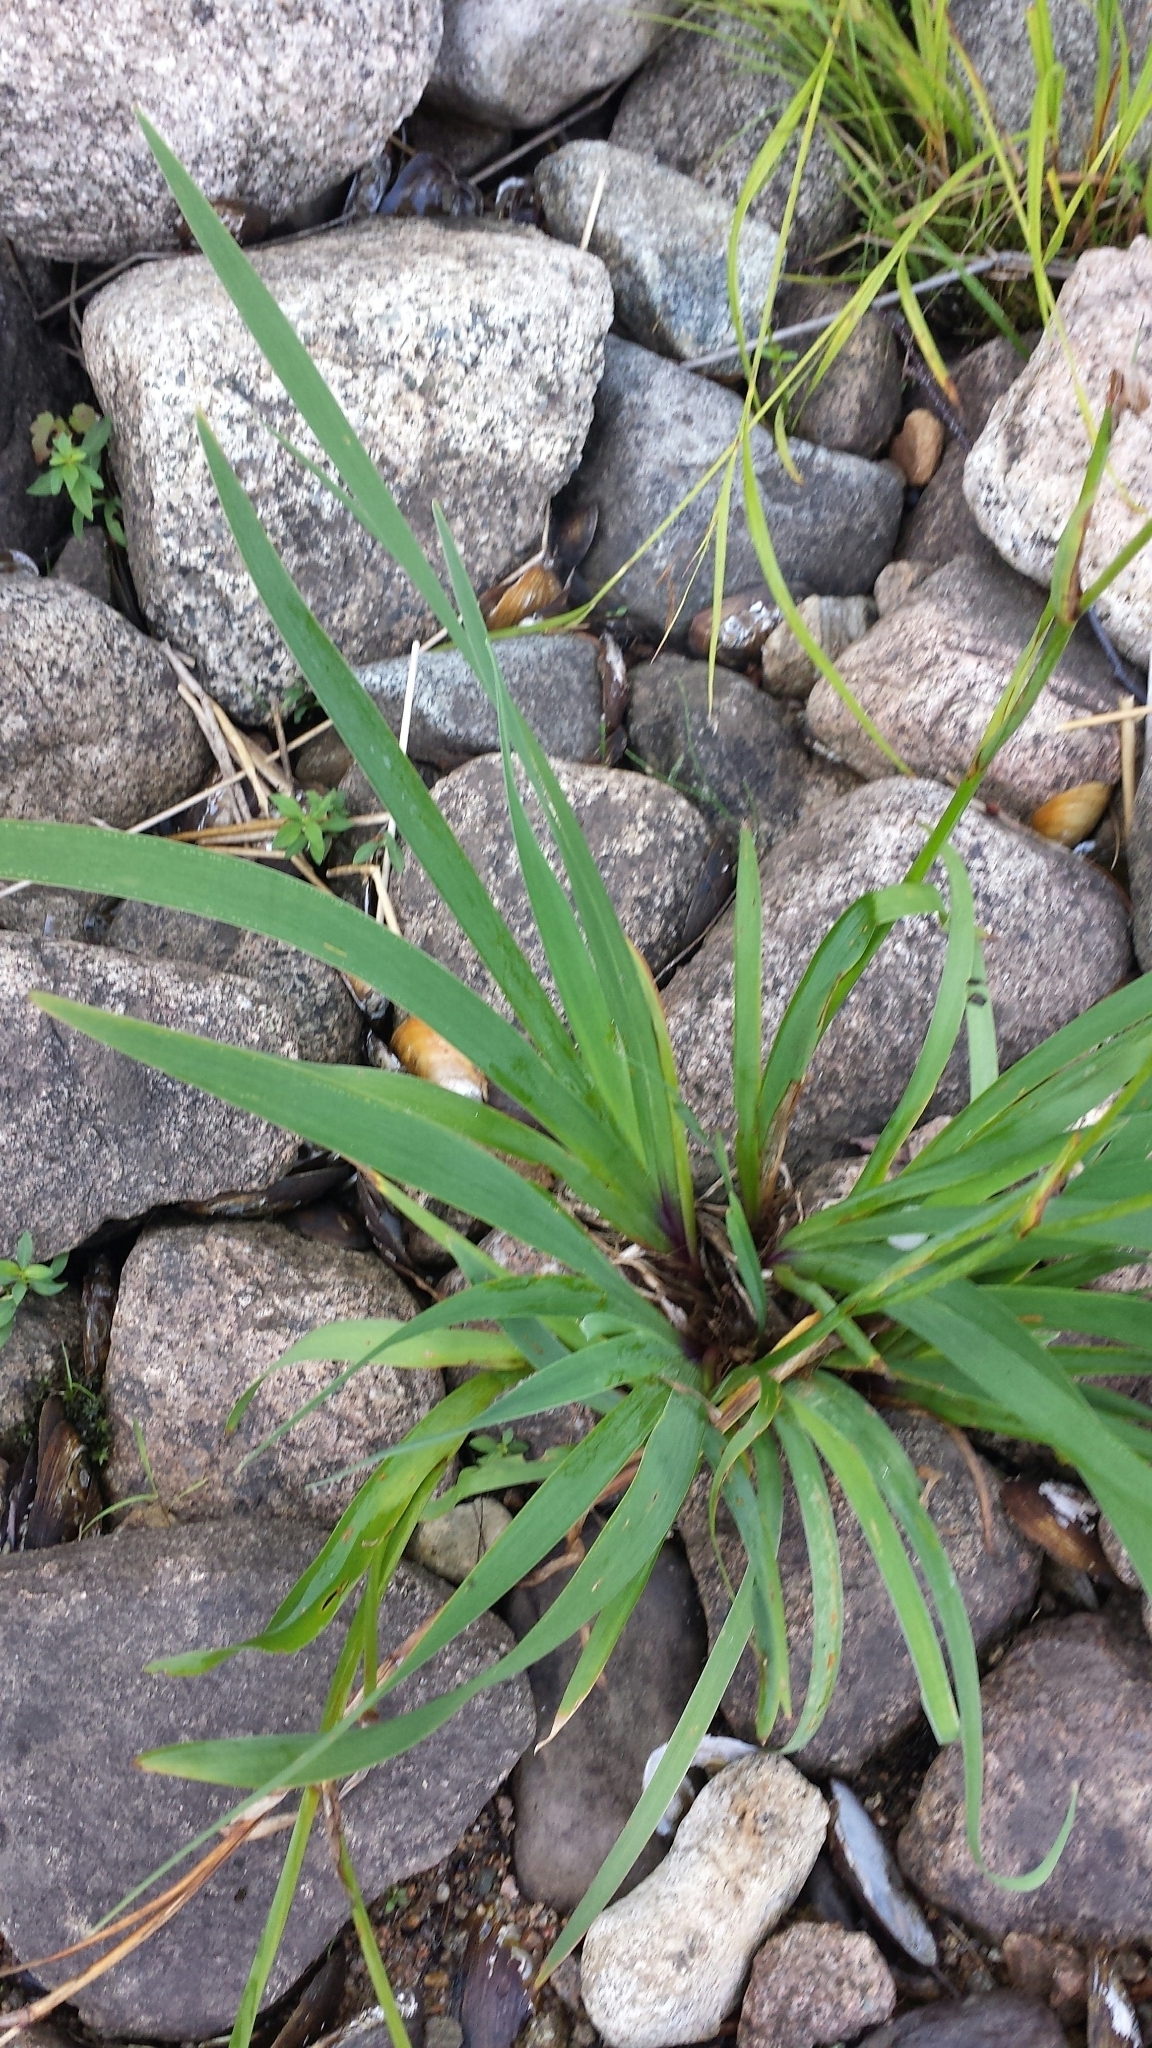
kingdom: Plantae
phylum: Tracheophyta
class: Liliopsida
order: Asparagales
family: Iridaceae
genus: Iris
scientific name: Iris versicolor
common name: Purple iris
